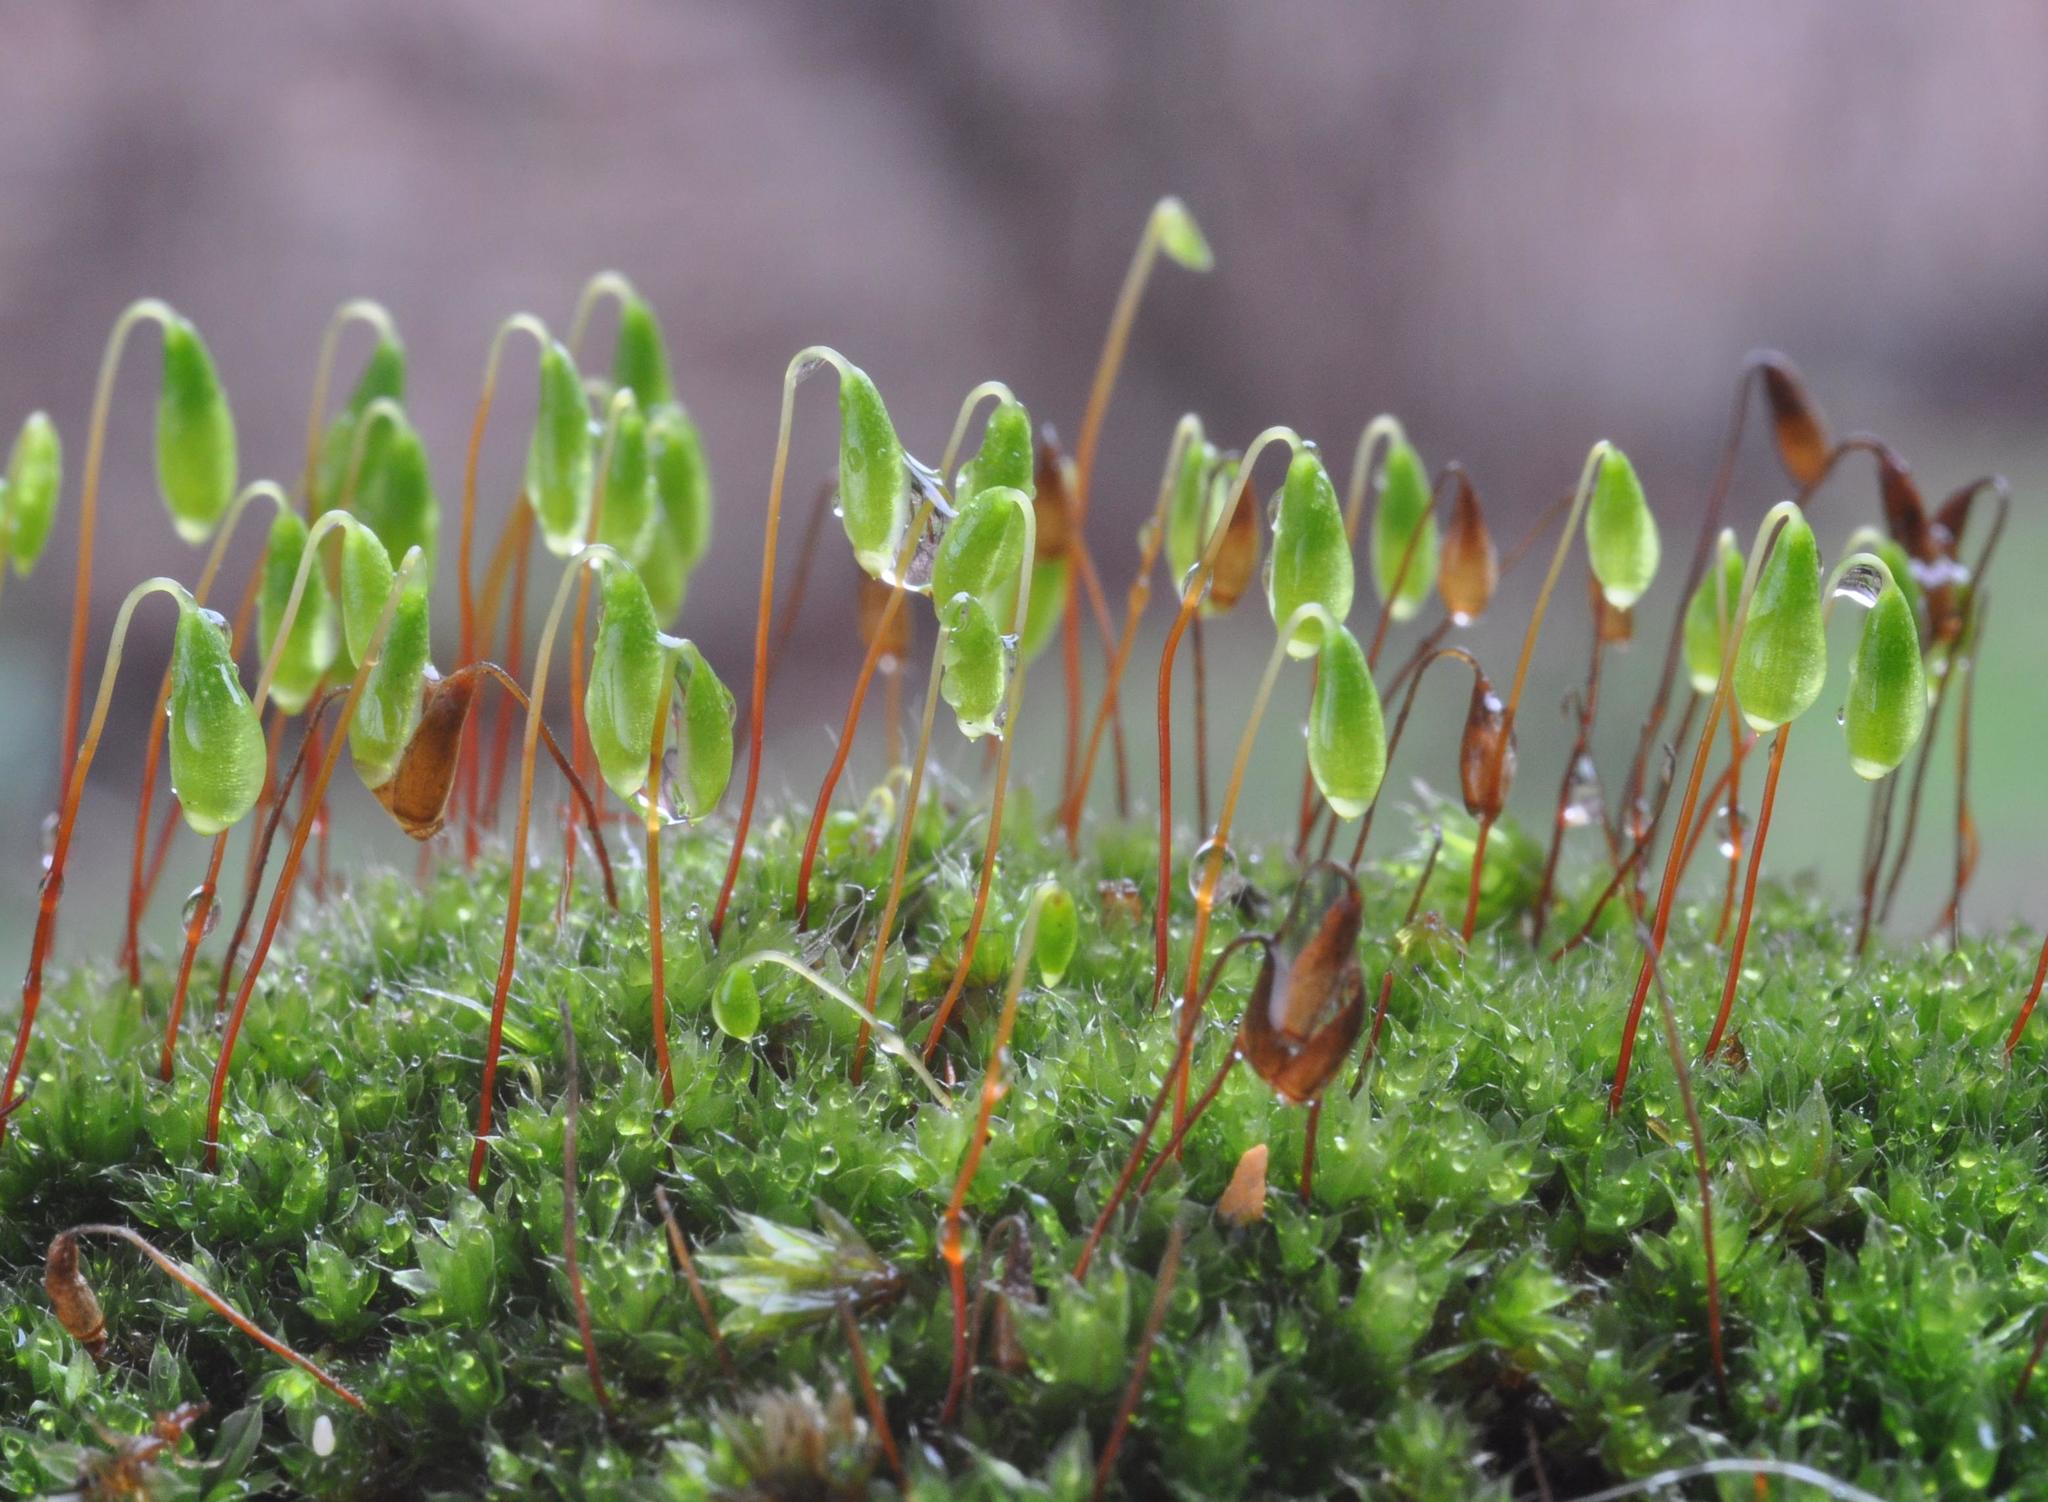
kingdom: Plantae
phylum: Bryophyta
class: Bryopsida
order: Bryales
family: Bryaceae
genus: Rosulabryum
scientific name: Rosulabryum capillare
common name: Capillary thread-moss
